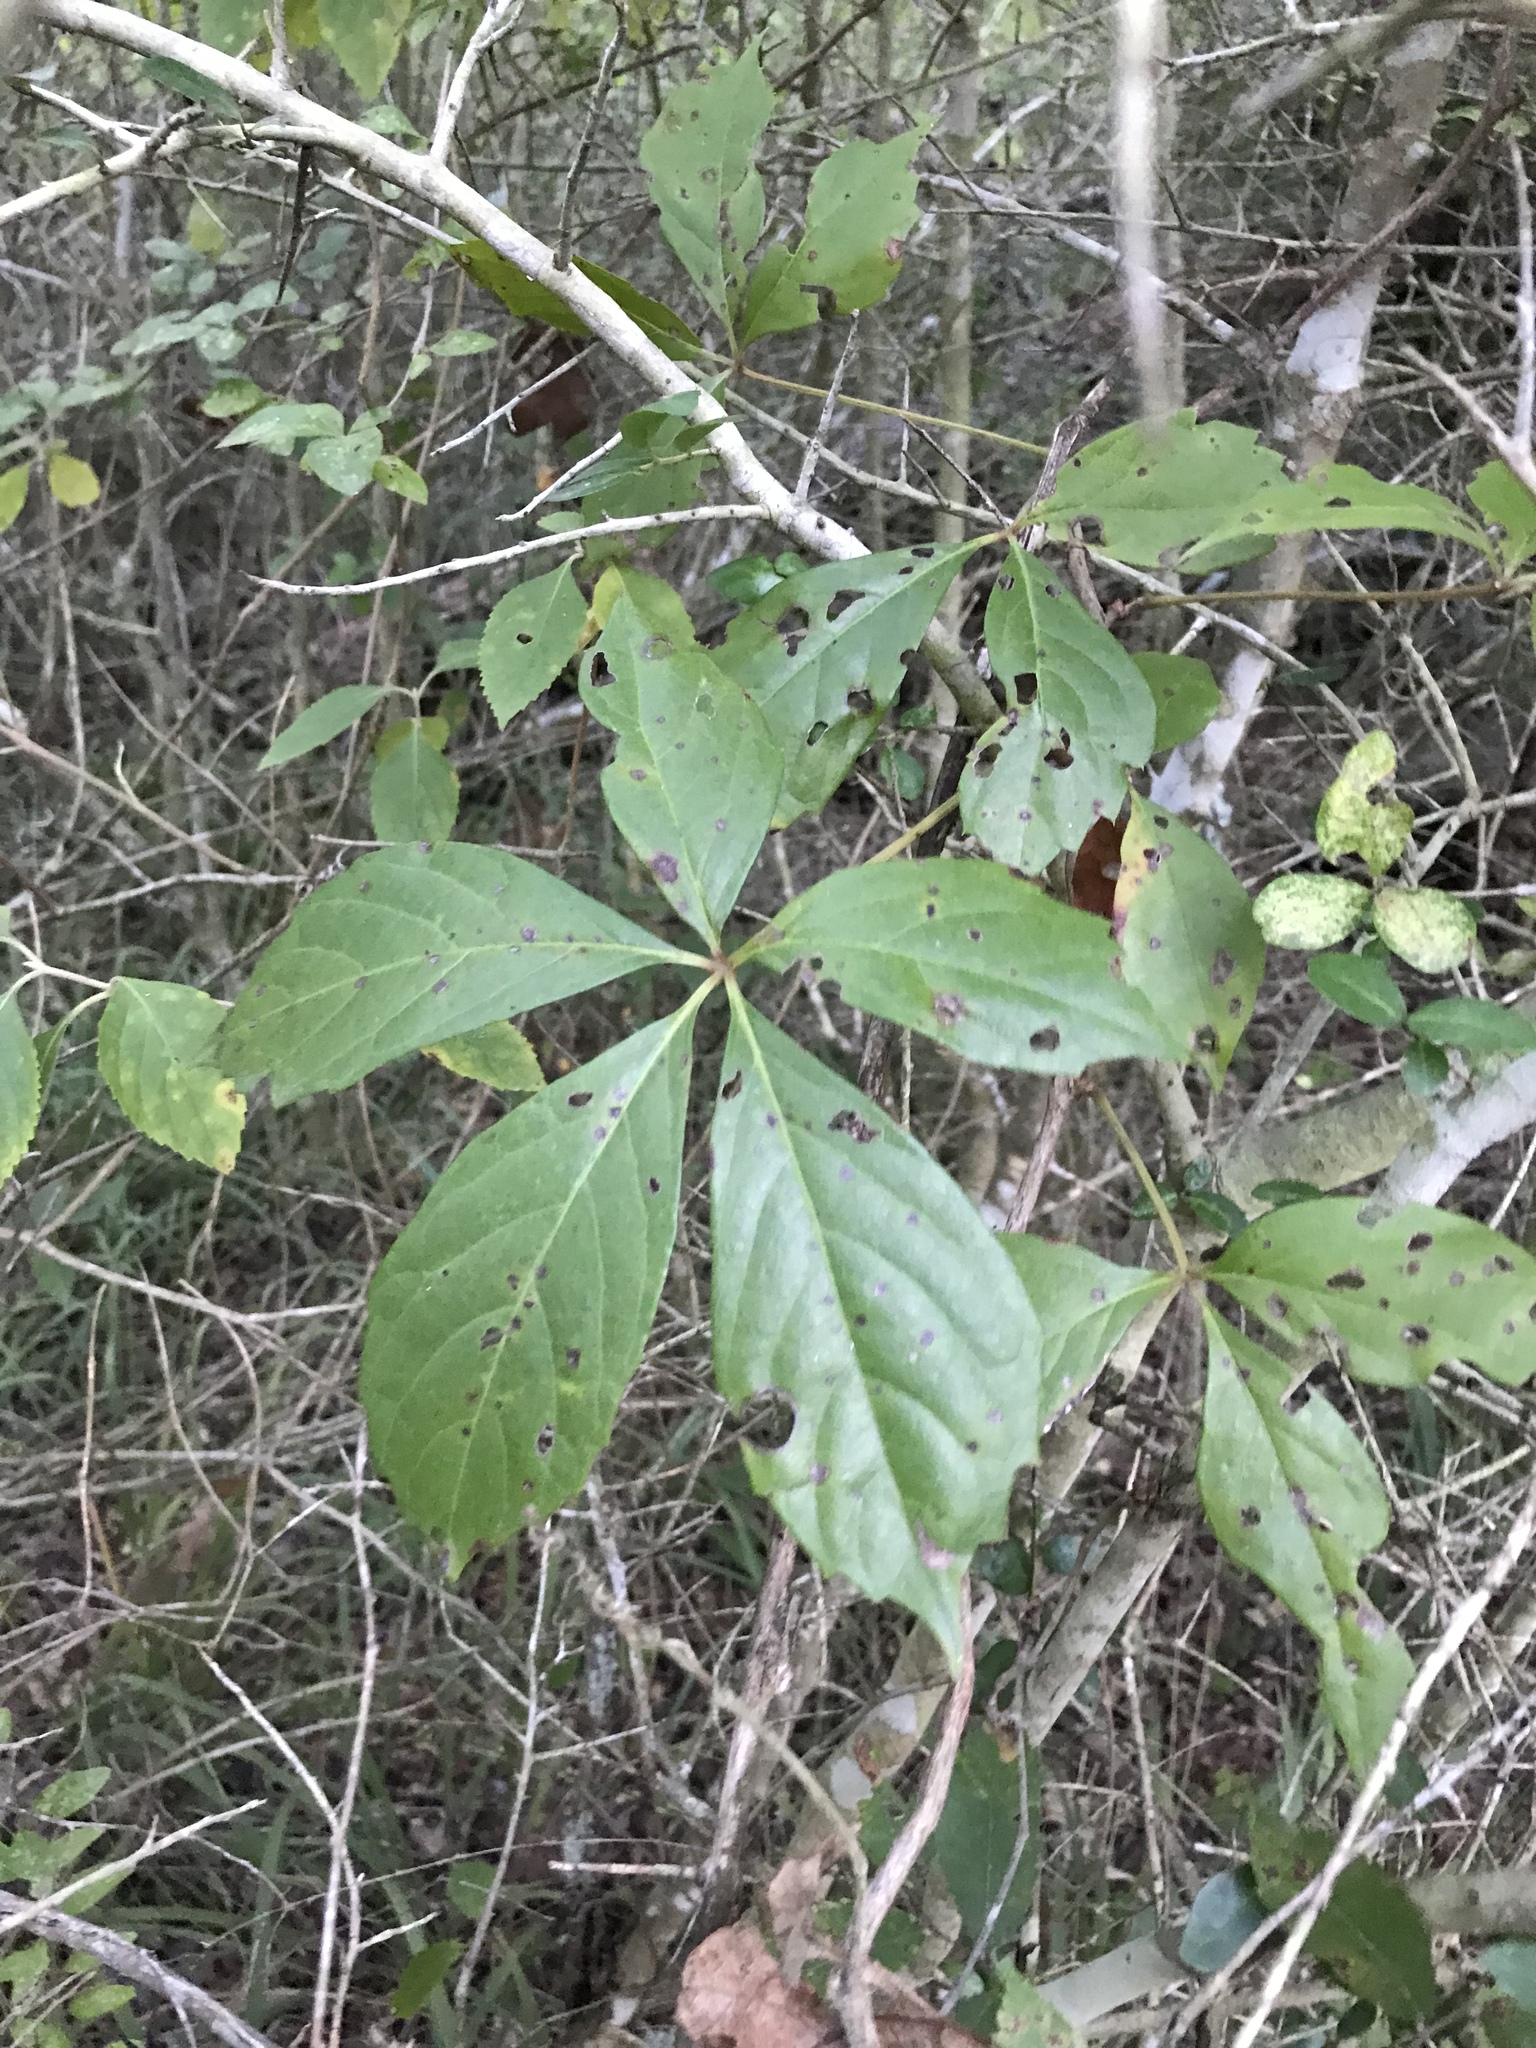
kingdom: Plantae
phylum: Tracheophyta
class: Magnoliopsida
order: Vitales
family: Vitaceae
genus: Parthenocissus
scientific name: Parthenocissus quinquefolia
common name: Virginia-creeper
